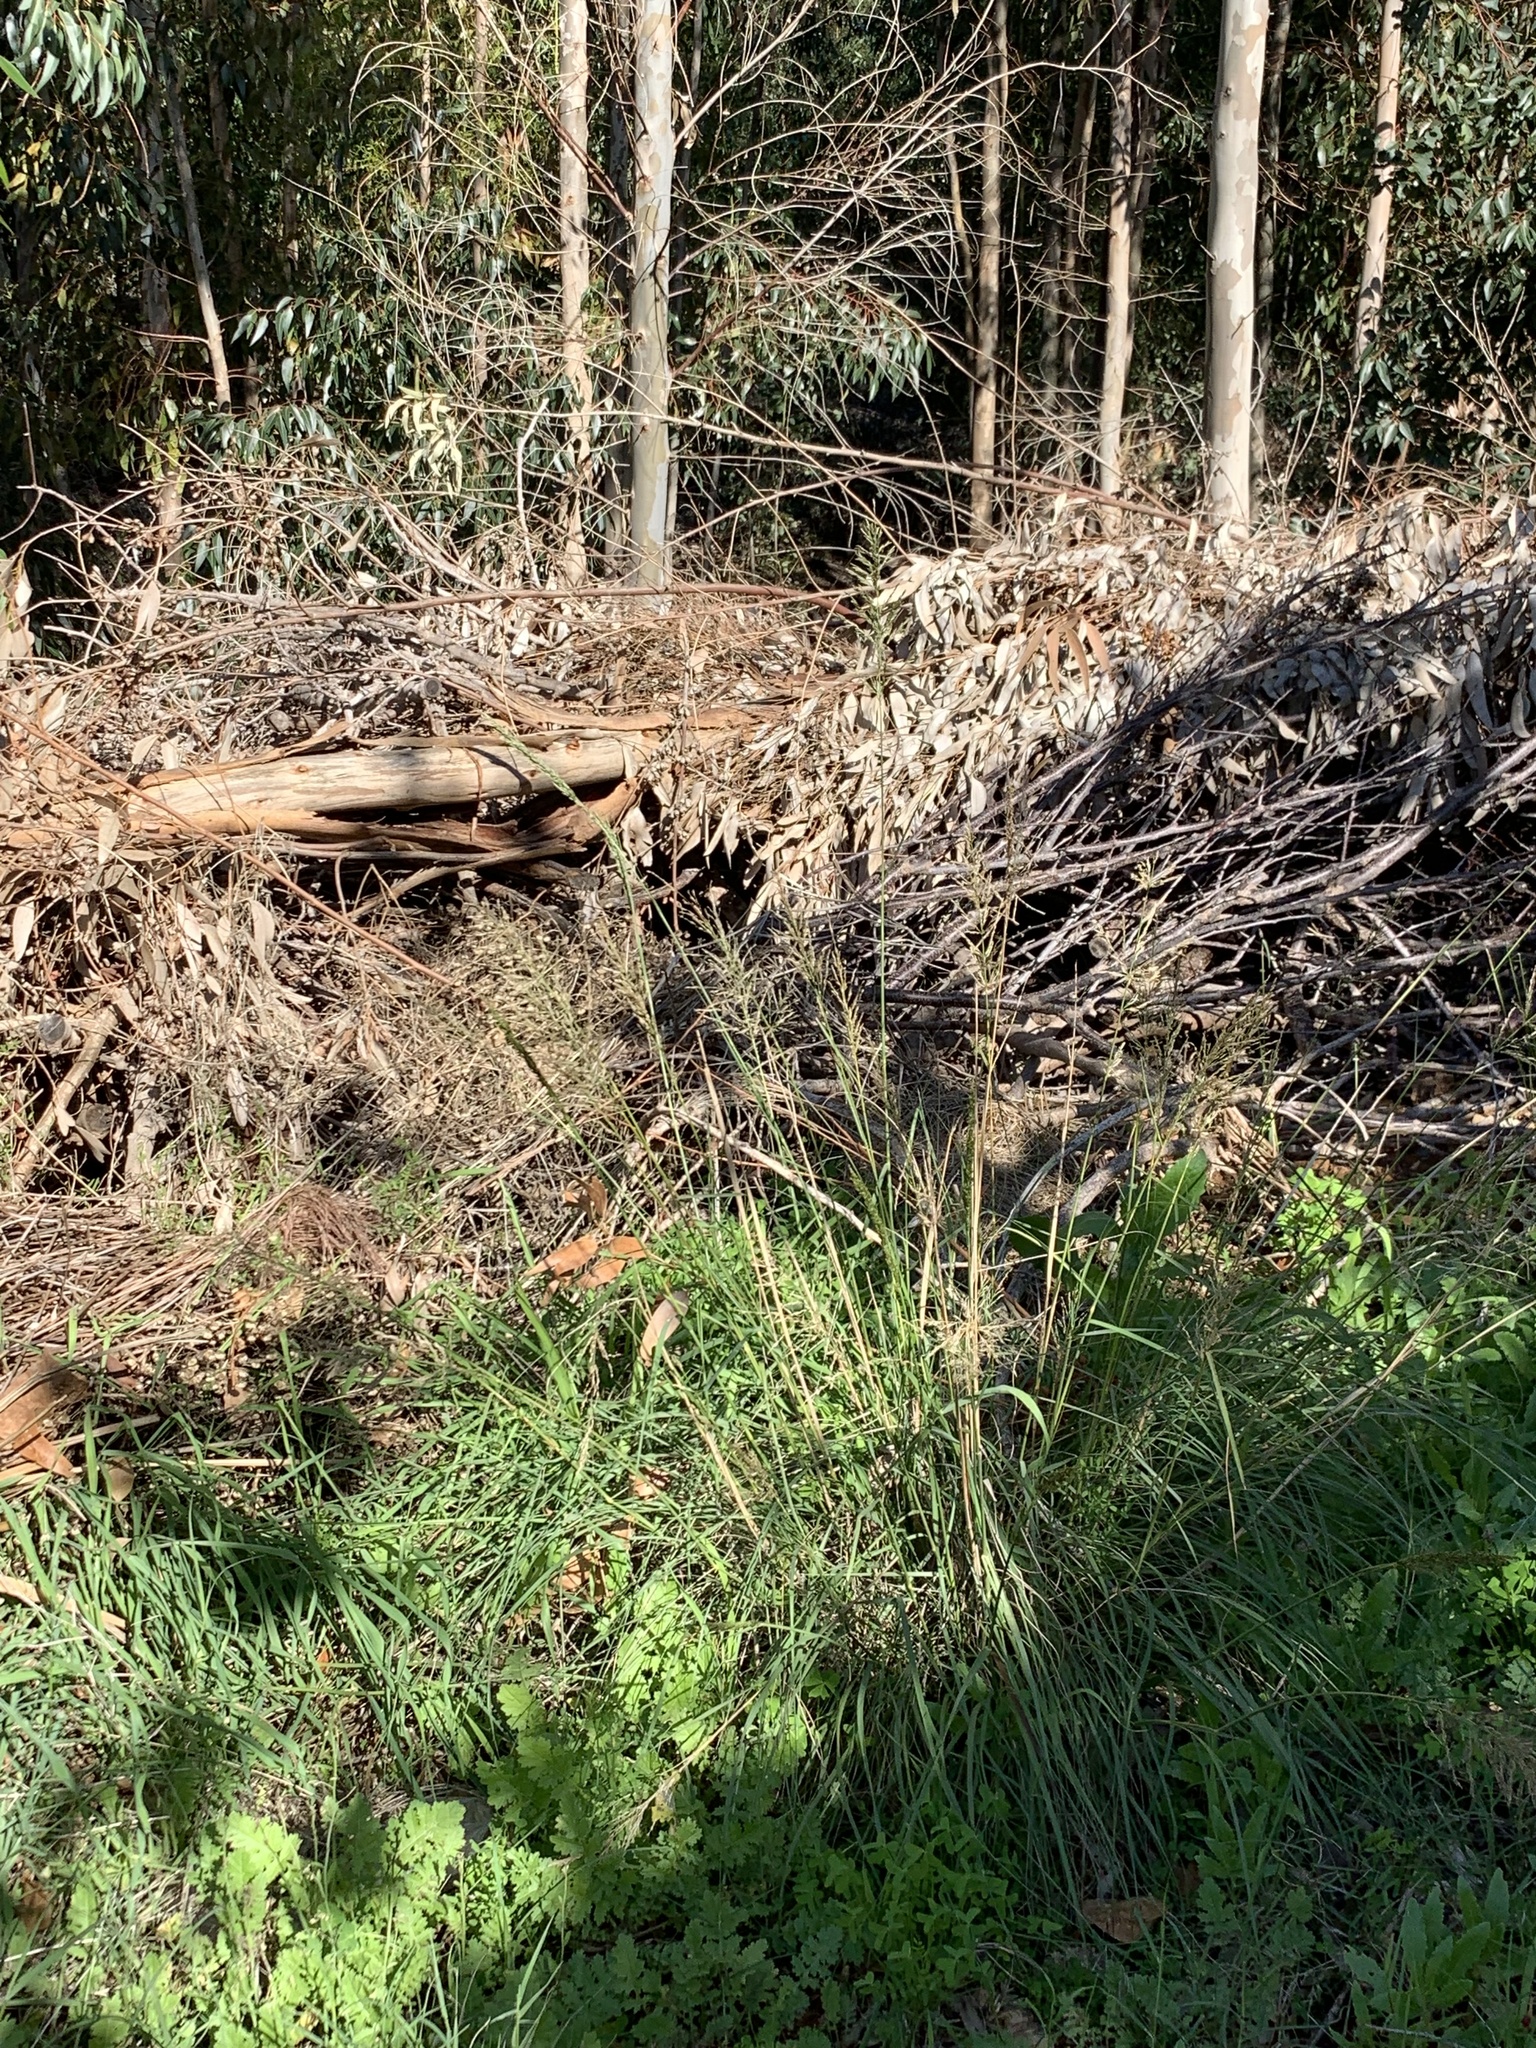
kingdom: Plantae
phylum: Tracheophyta
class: Liliopsida
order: Poales
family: Poaceae
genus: Eragrostis
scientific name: Eragrostis curvula
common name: African love-grass
